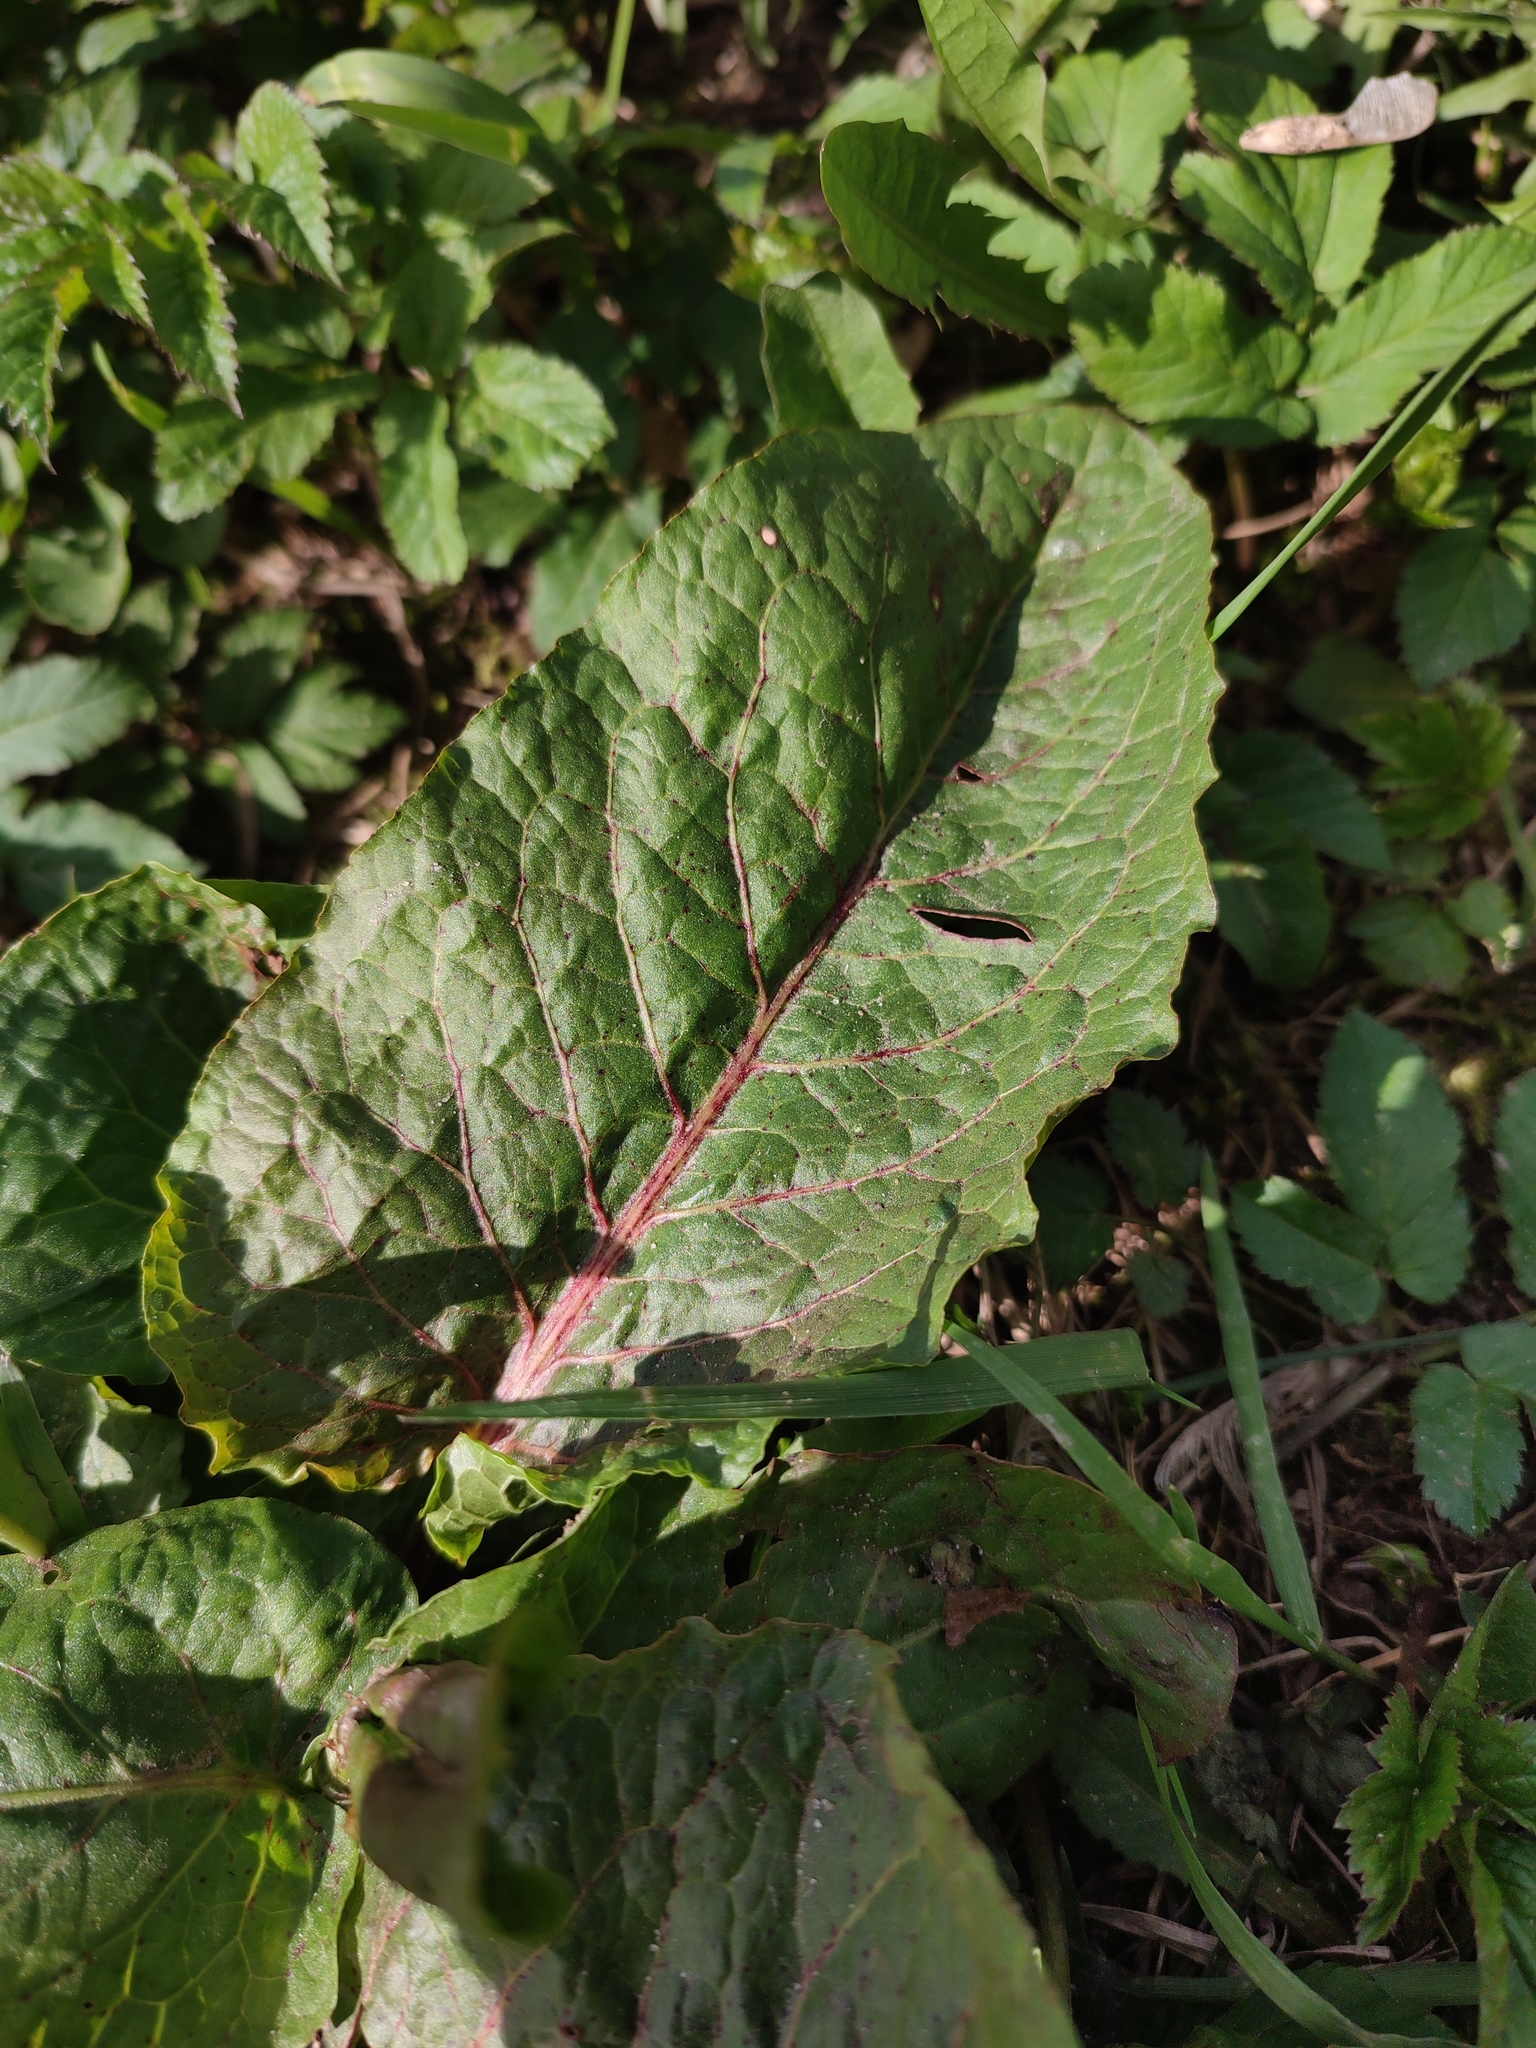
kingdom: Plantae
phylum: Tracheophyta
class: Magnoliopsida
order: Caryophyllales
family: Polygonaceae
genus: Rumex
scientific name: Rumex obtusifolius
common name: Bitter dock
